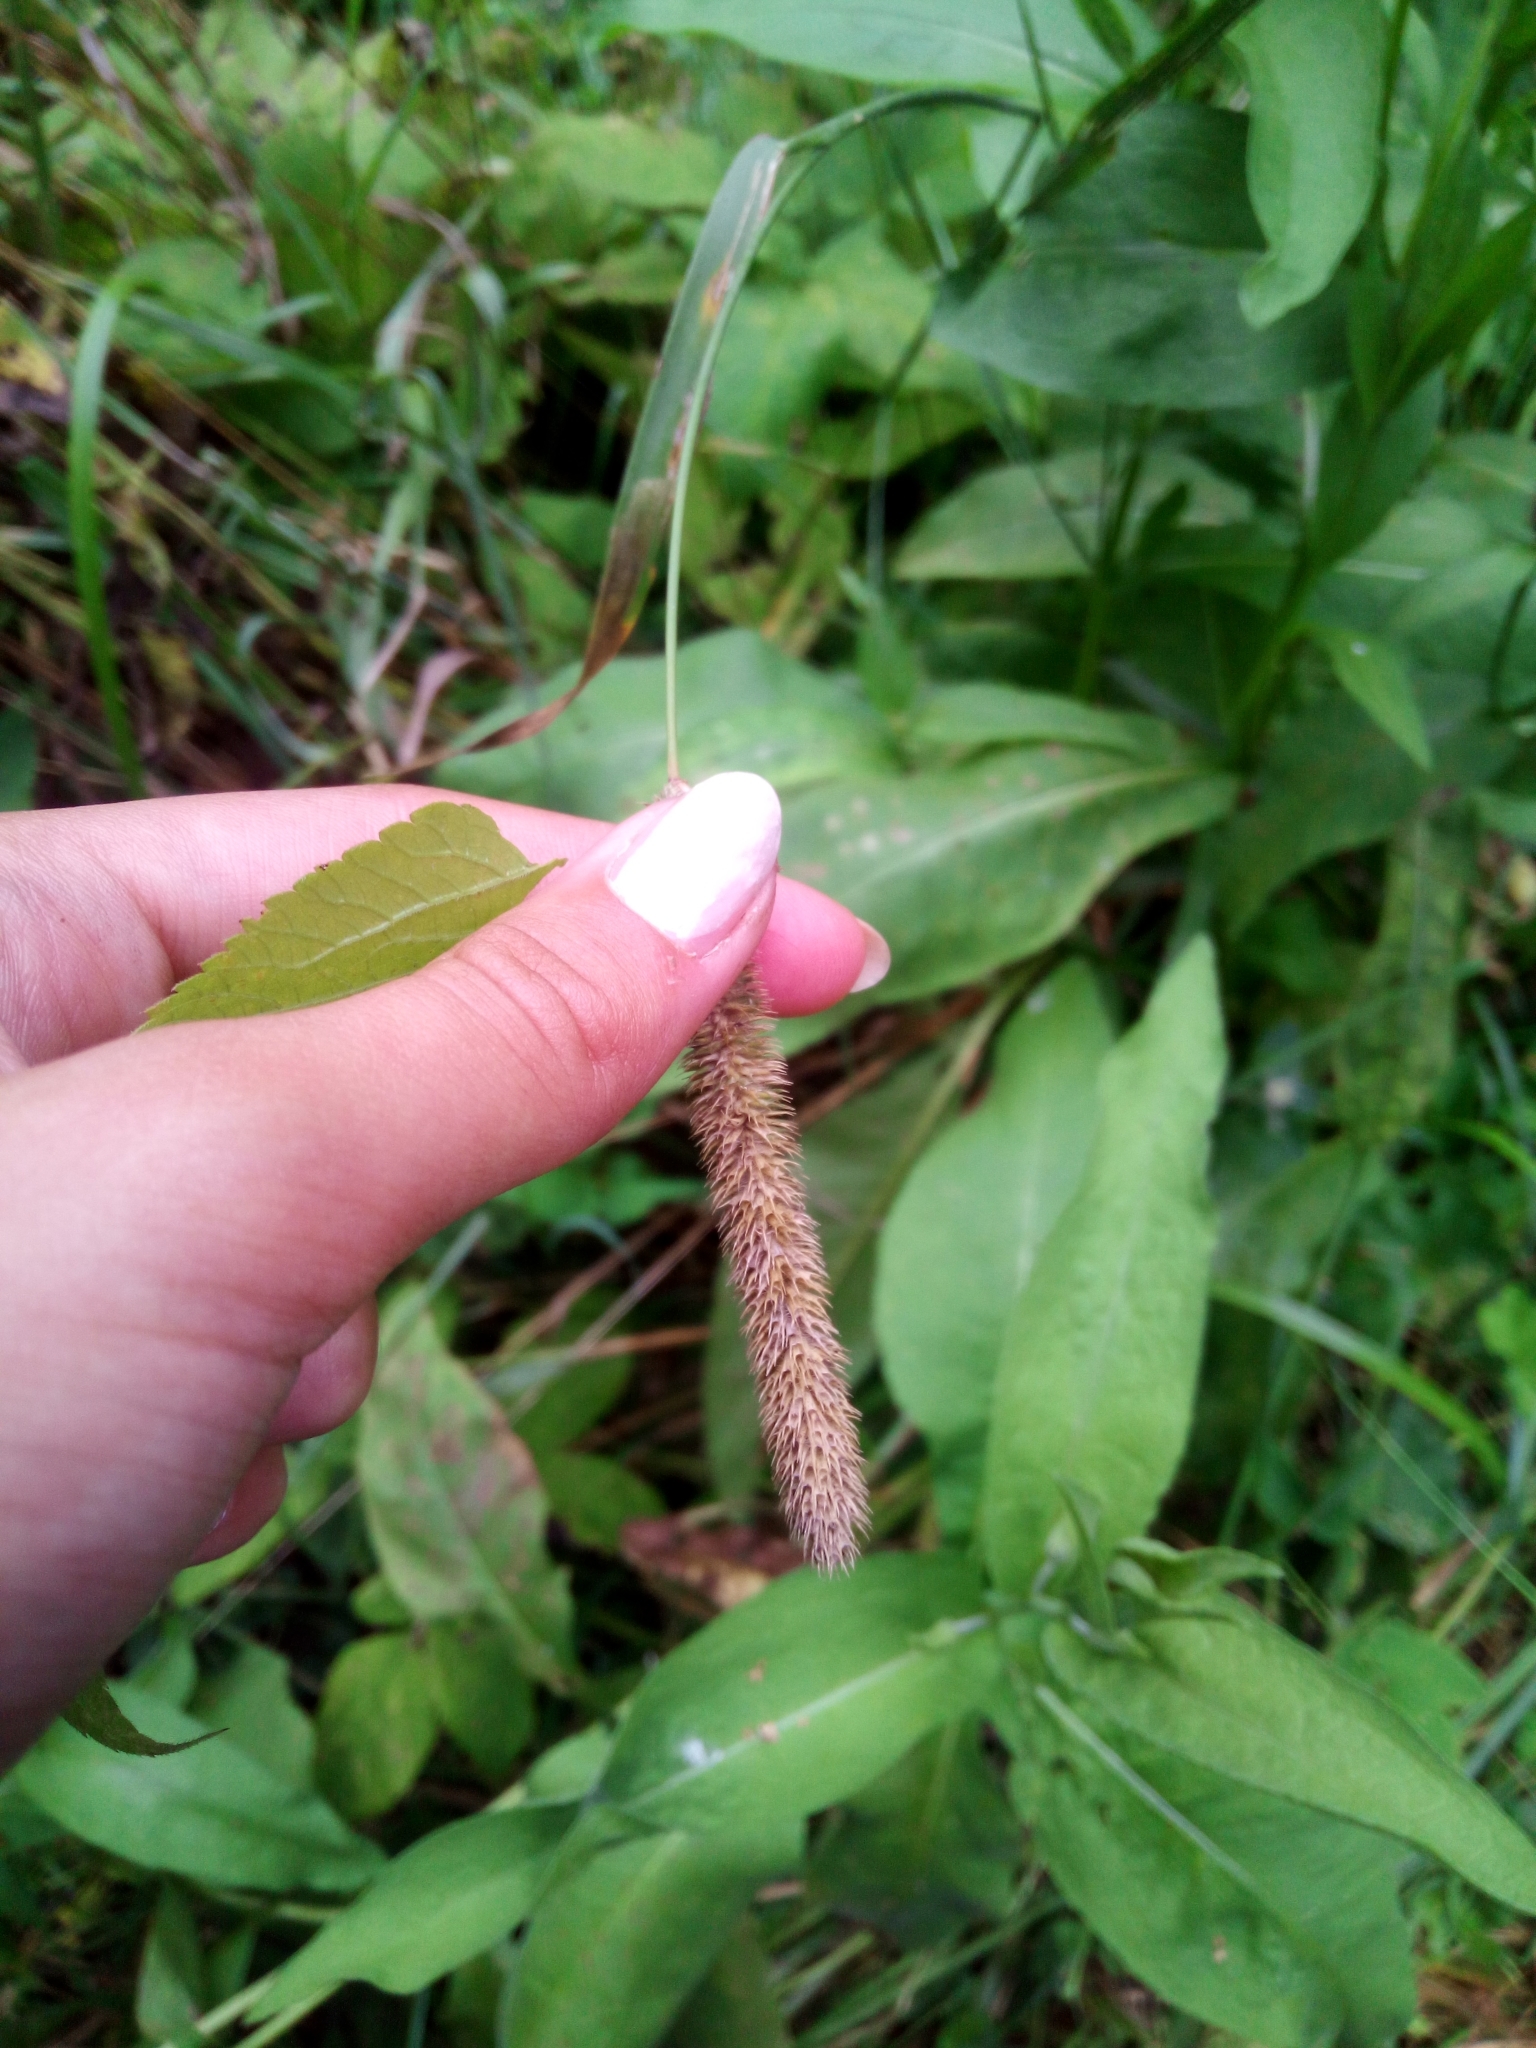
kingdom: Plantae
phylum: Tracheophyta
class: Liliopsida
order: Poales
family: Poaceae
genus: Phleum
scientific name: Phleum pratense
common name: Timothy grass
